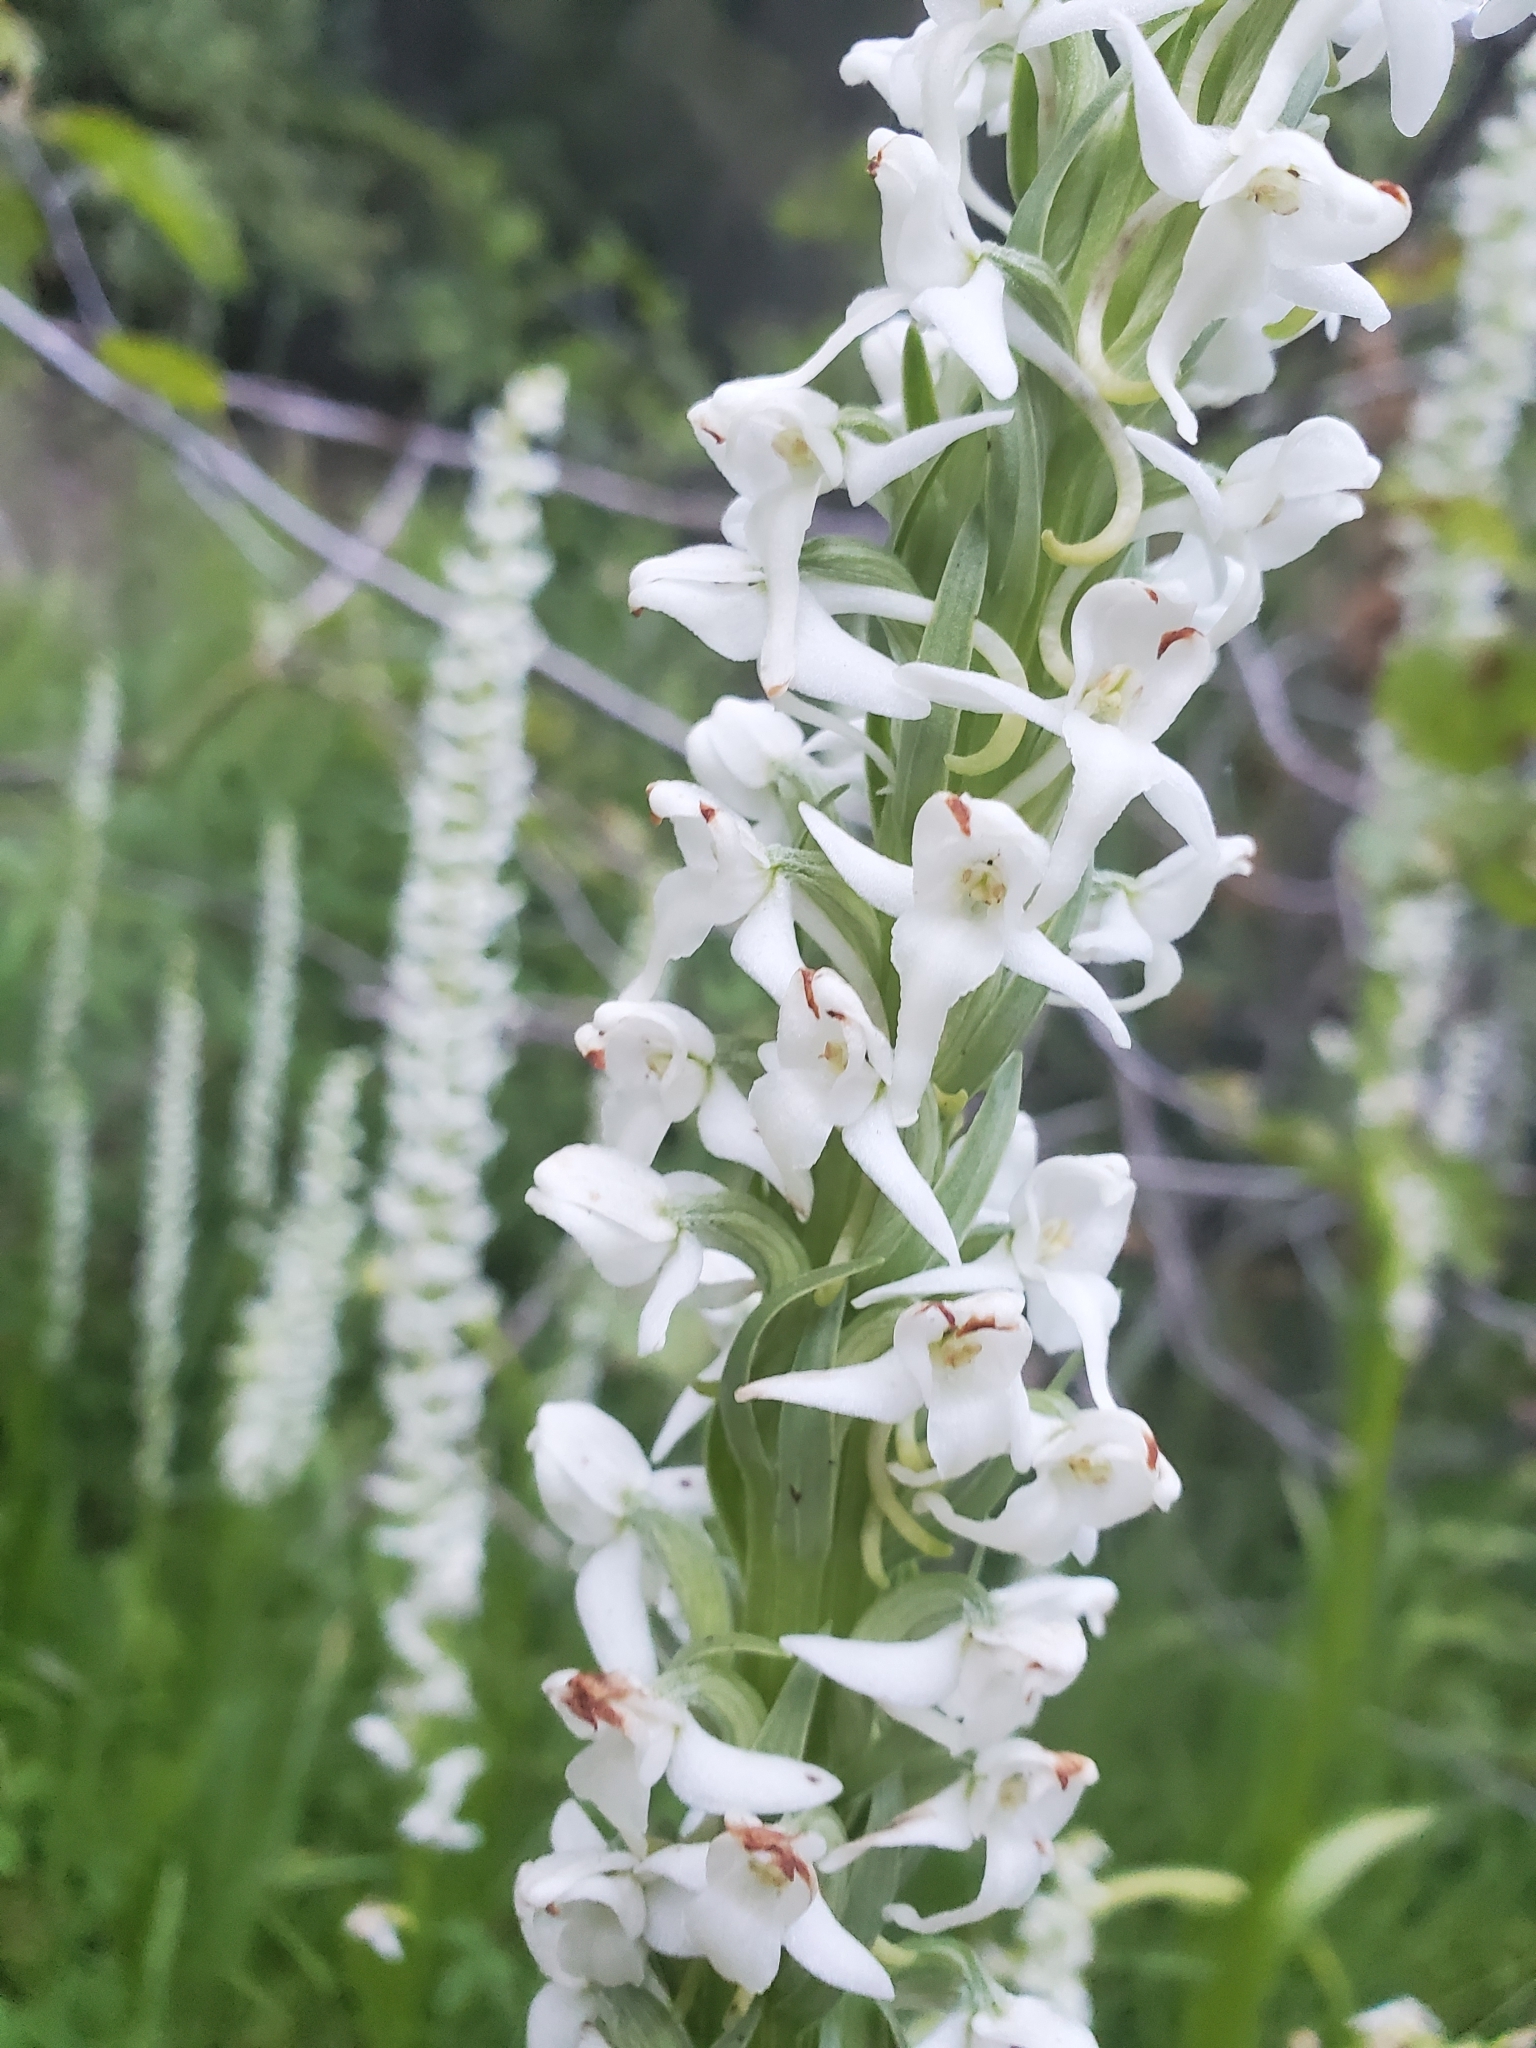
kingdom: Plantae
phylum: Tracheophyta
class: Liliopsida
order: Asparagales
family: Orchidaceae
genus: Platanthera
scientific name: Platanthera dilatata
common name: Bog candles
